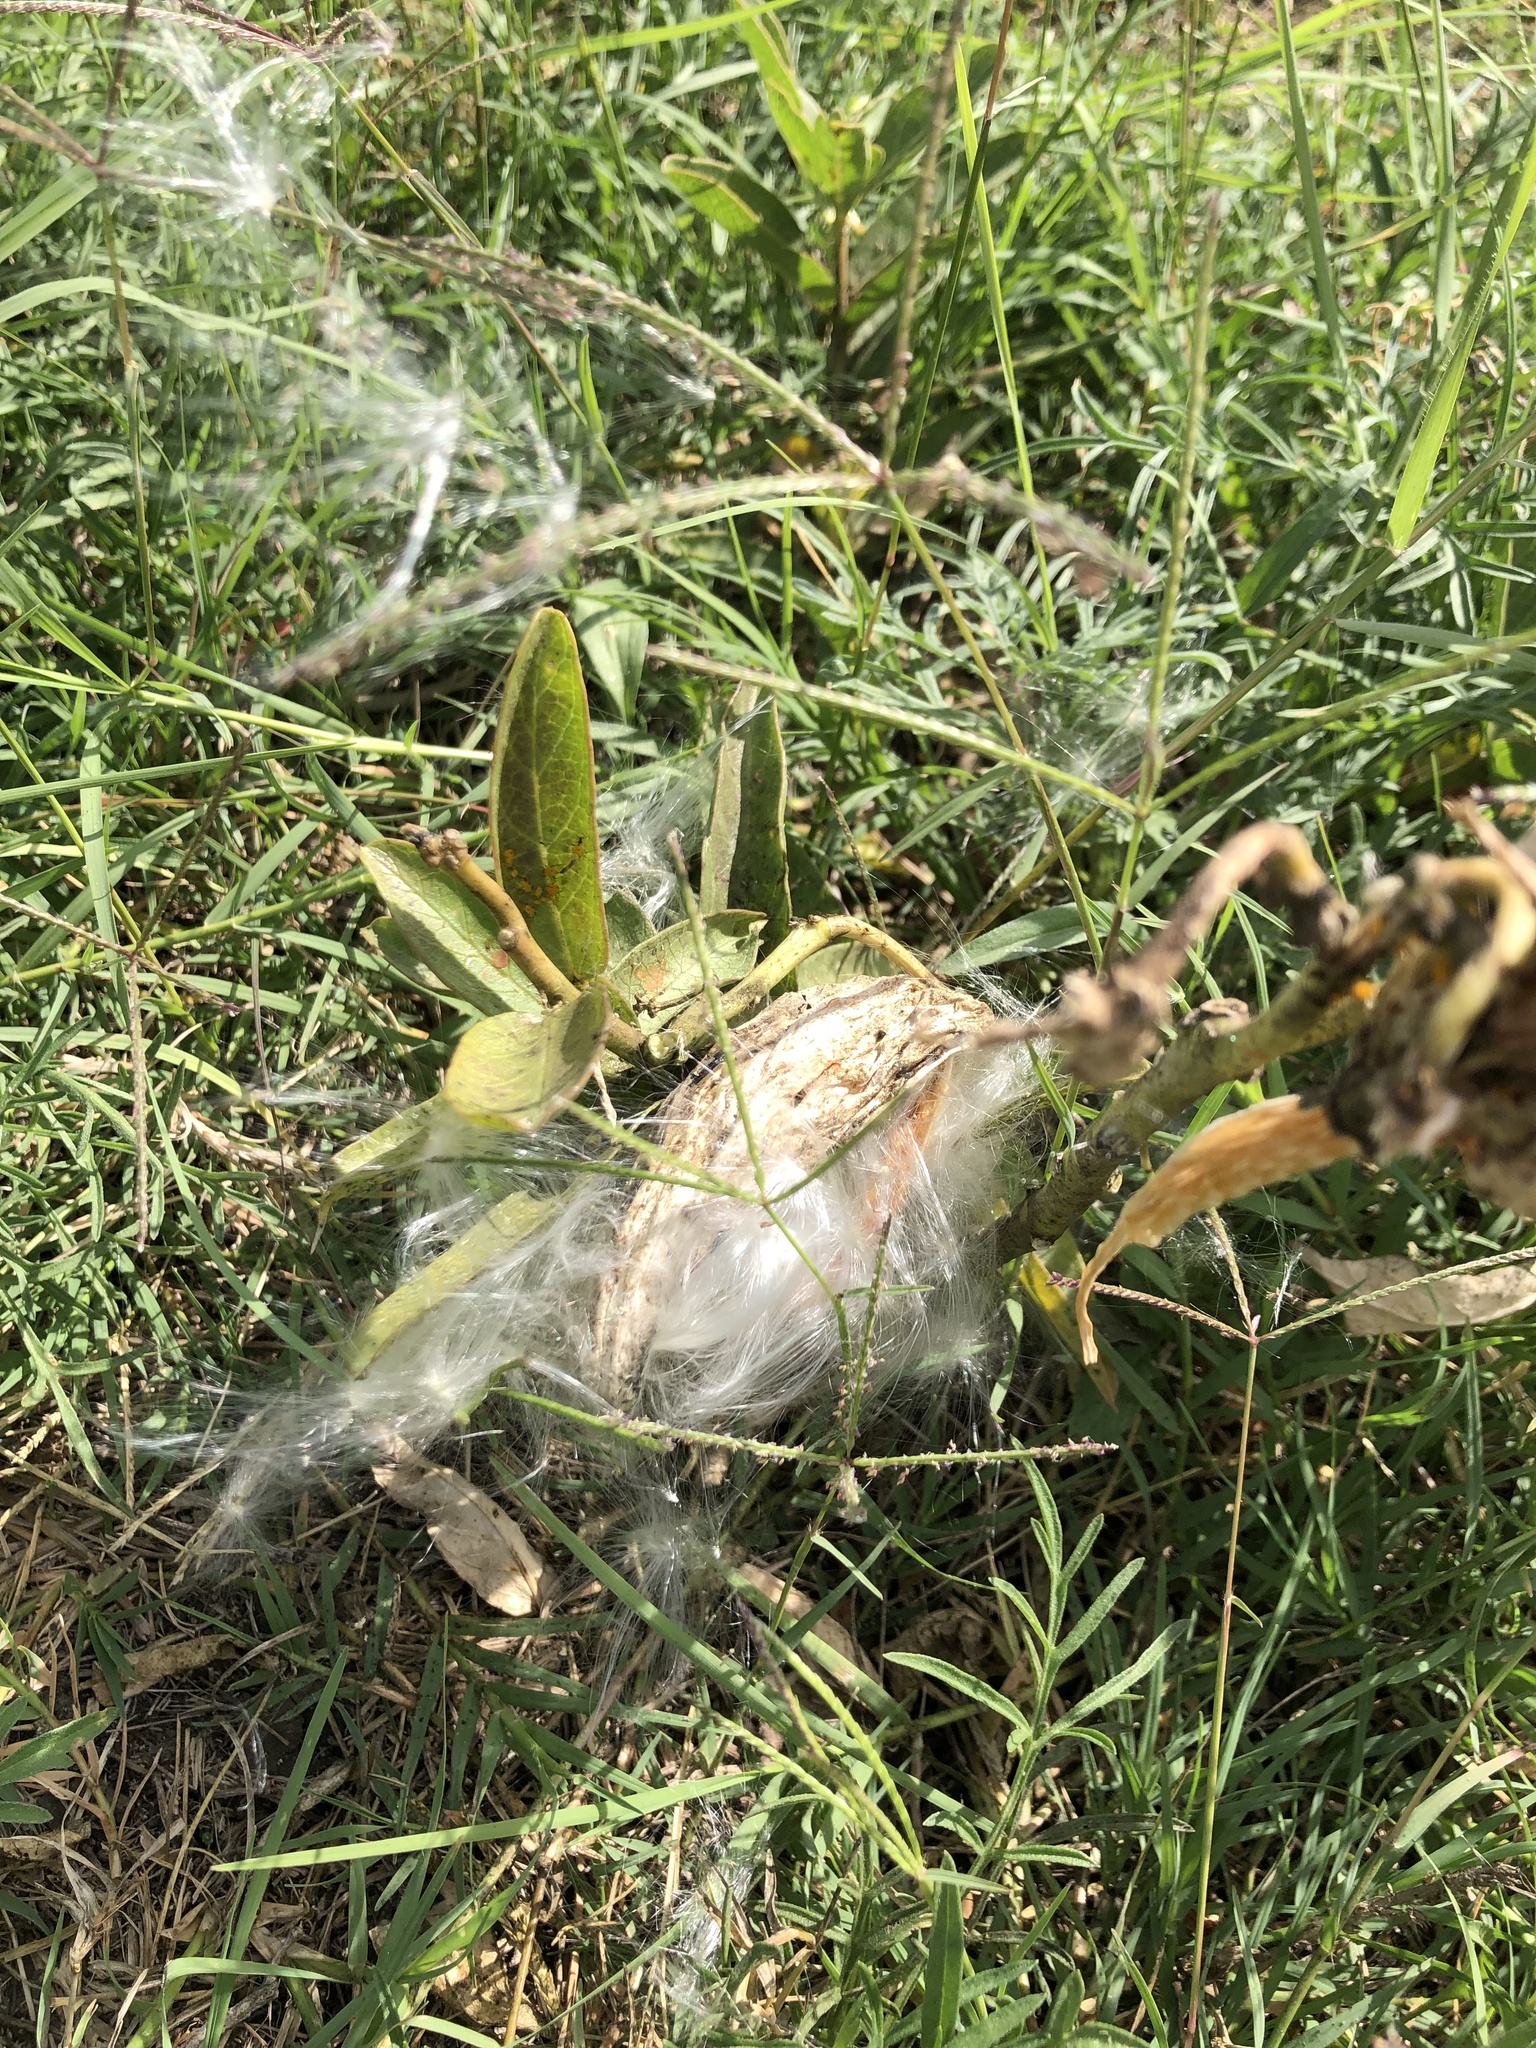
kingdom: Plantae
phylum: Tracheophyta
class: Magnoliopsida
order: Gentianales
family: Apocynaceae
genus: Asclepias
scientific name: Asclepias viridis
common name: Antelope-horns
